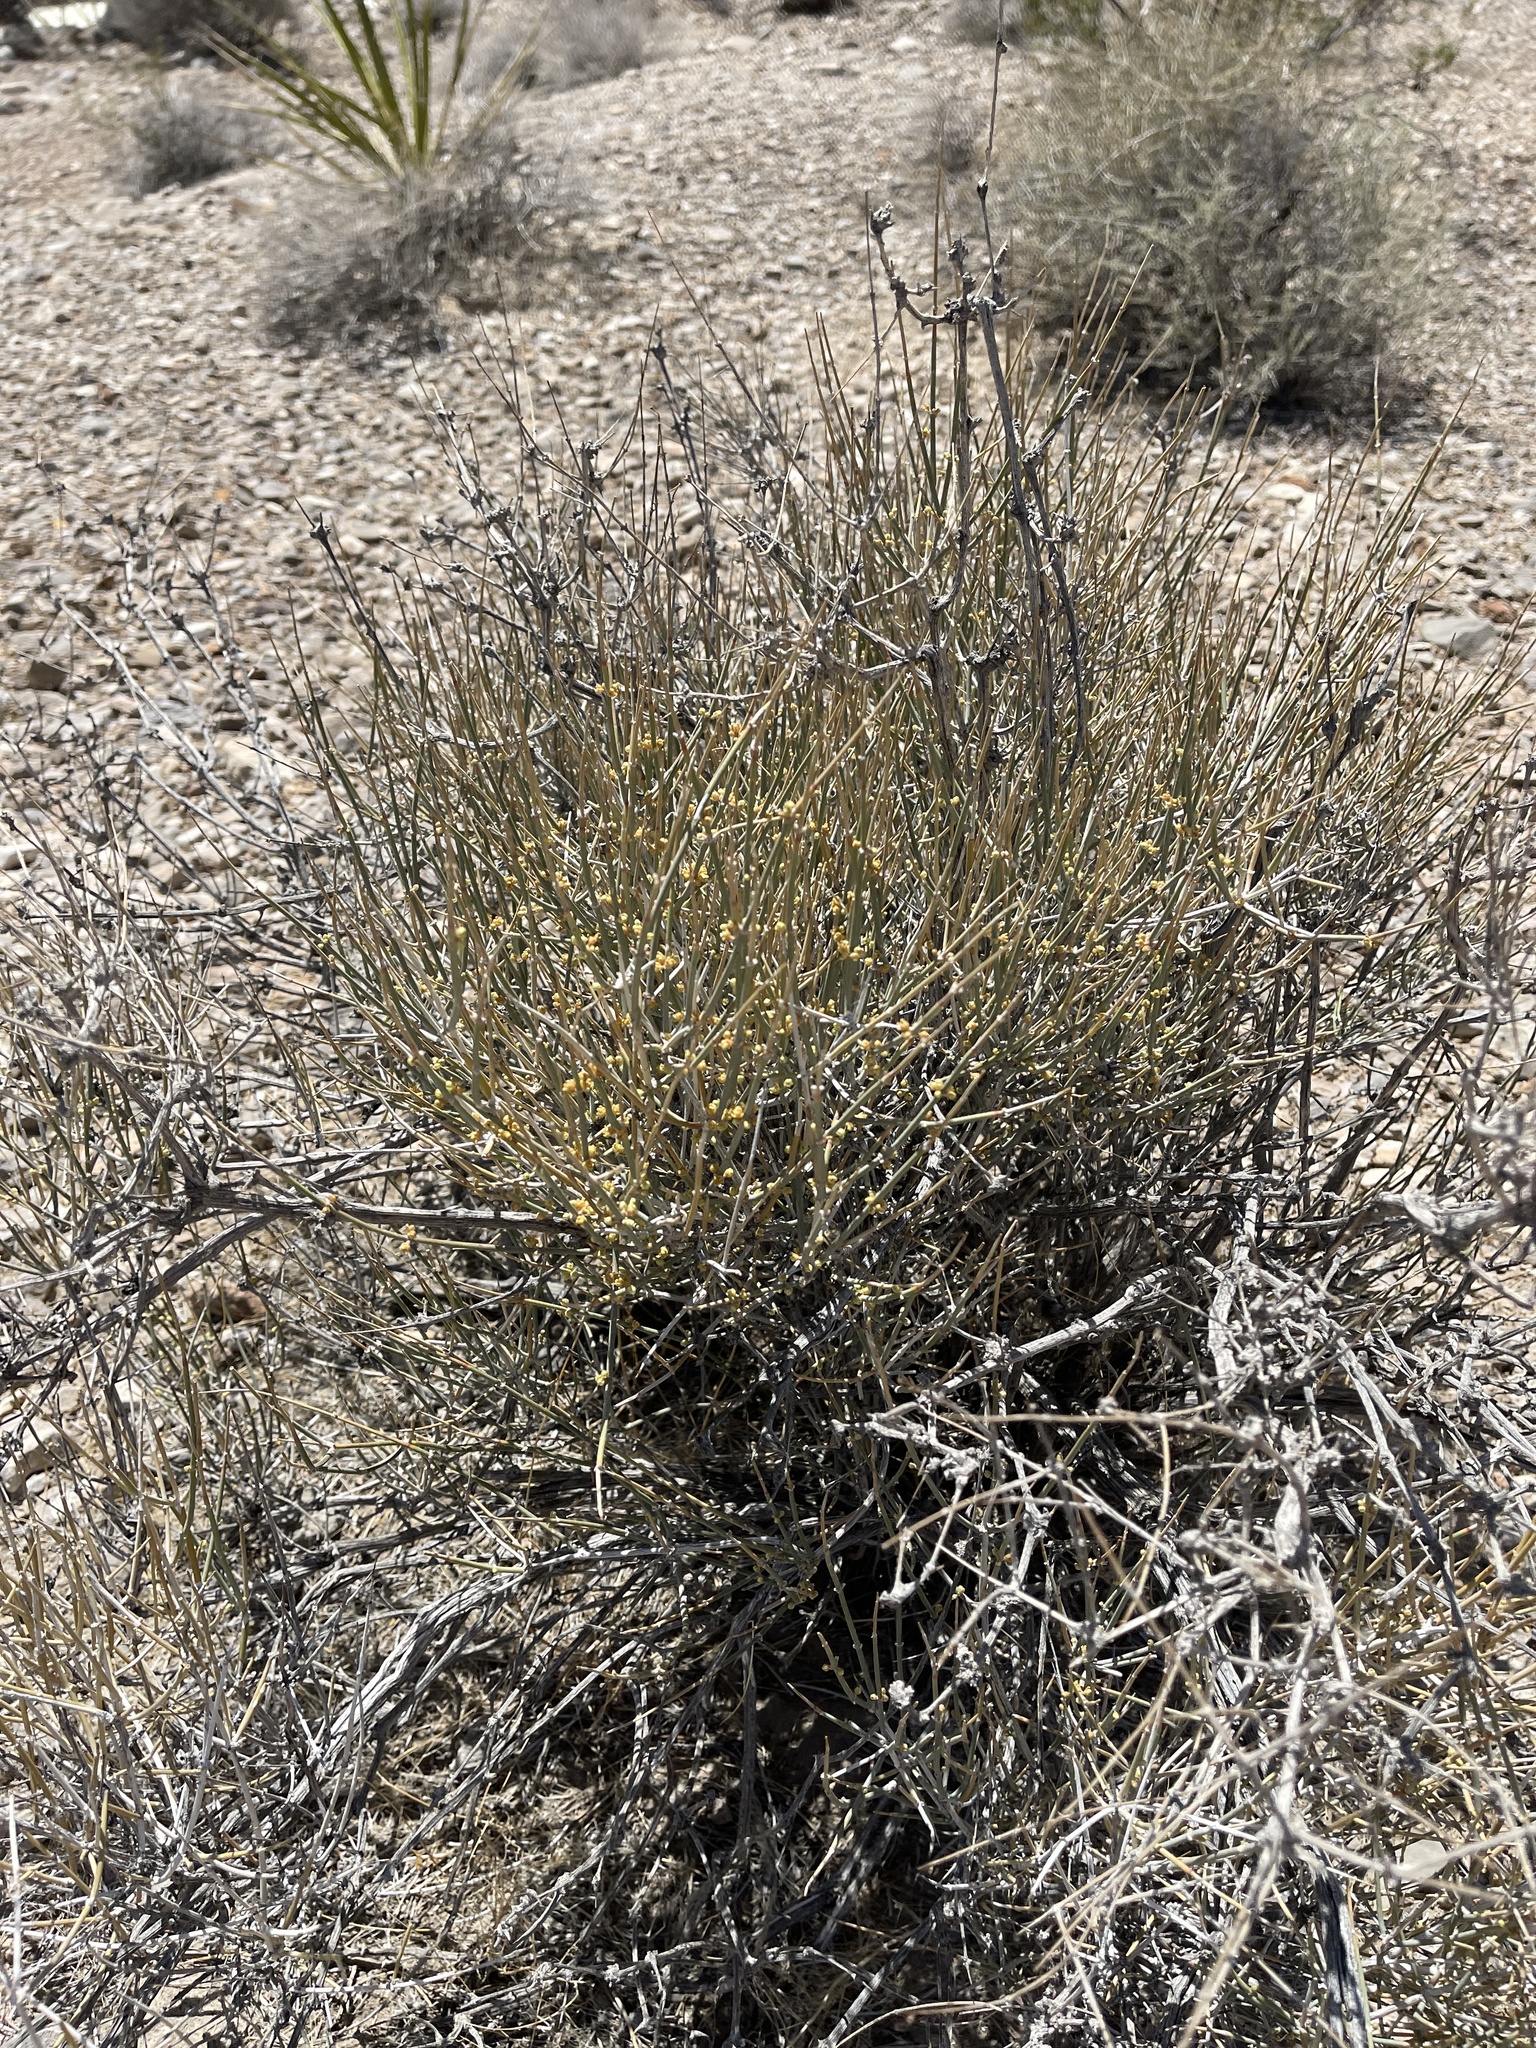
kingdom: Plantae
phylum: Tracheophyta
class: Gnetopsida
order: Ephedrales
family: Ephedraceae
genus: Ephedra
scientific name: Ephedra nevadensis
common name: Gray ephedra
